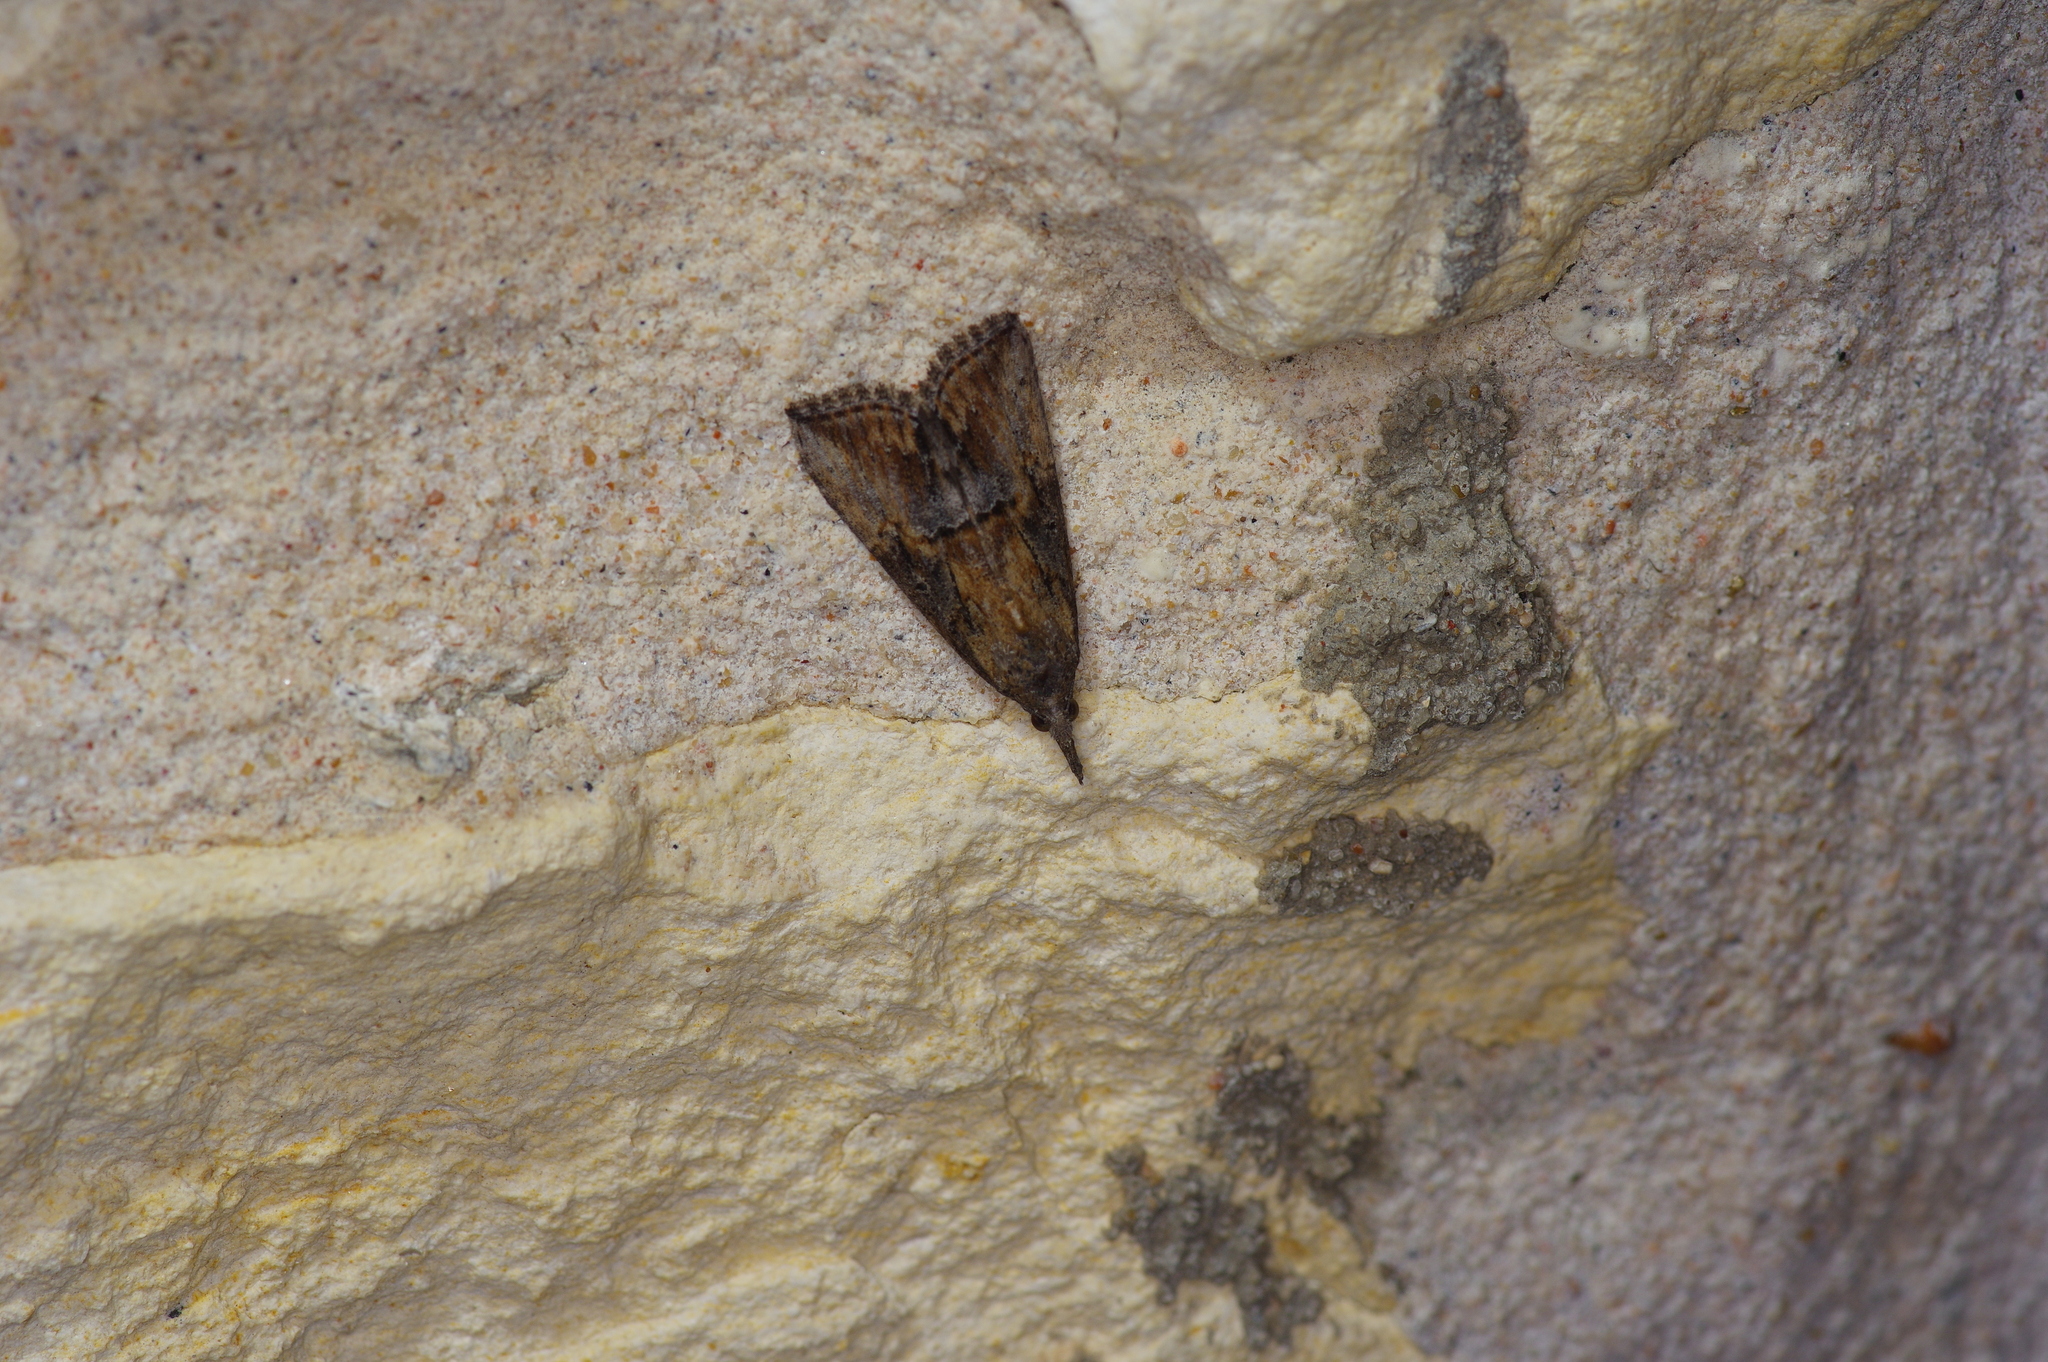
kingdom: Animalia
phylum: Arthropoda
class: Insecta
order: Lepidoptera
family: Erebidae
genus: Hypena
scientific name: Hypena scabra
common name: Green cloverworm
